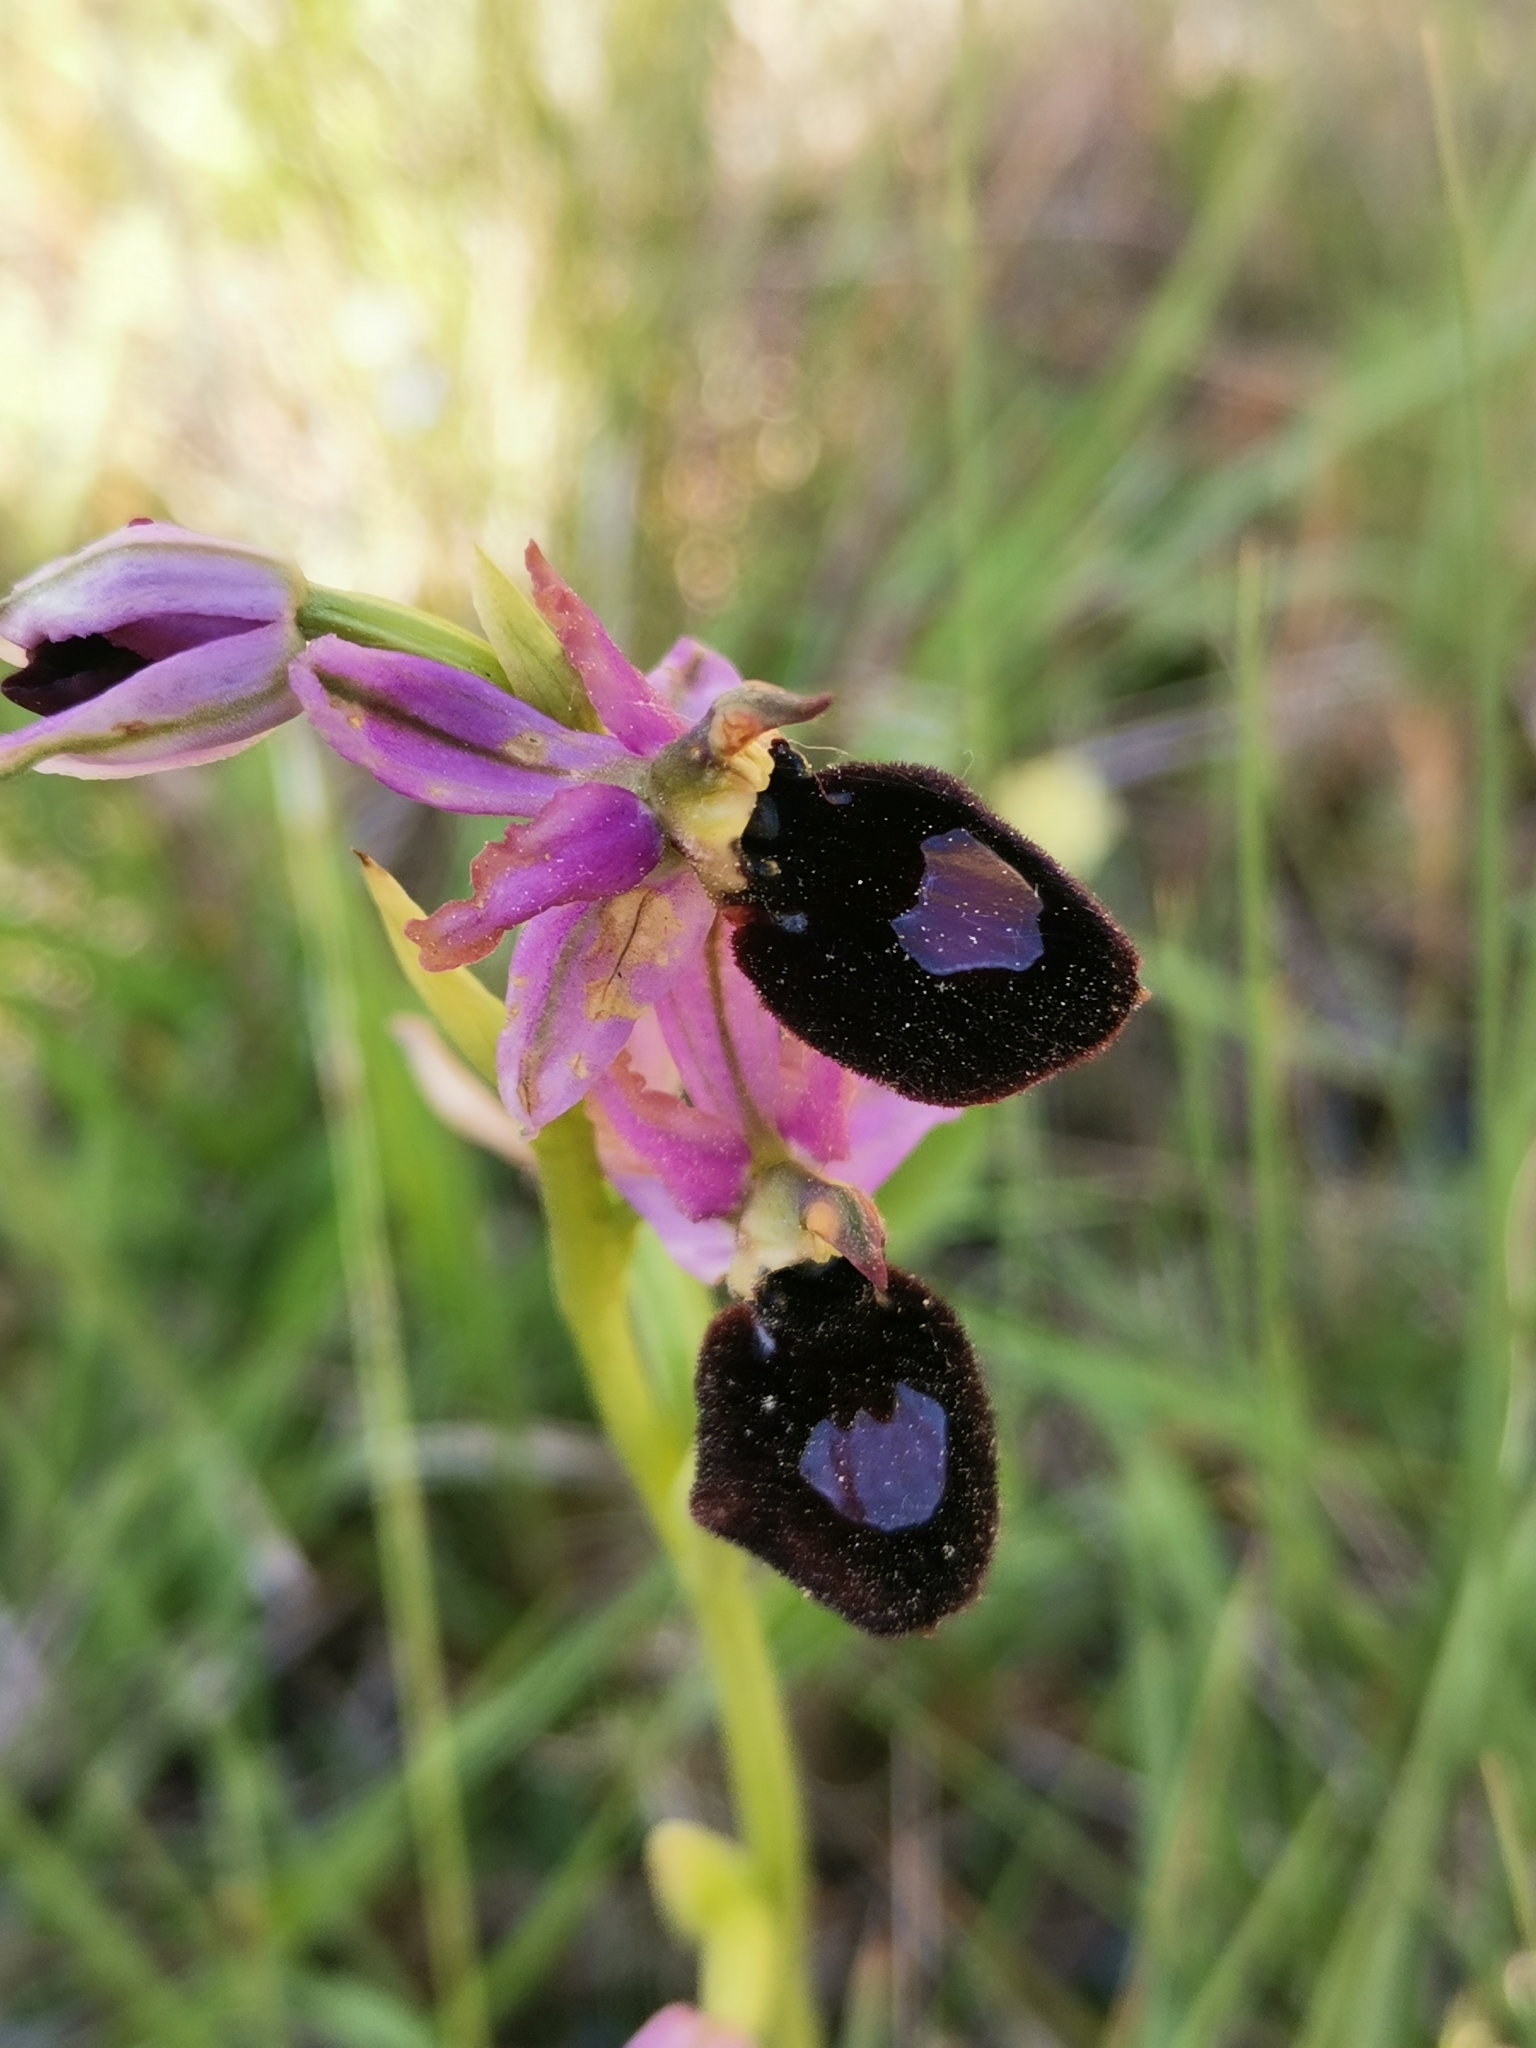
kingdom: Plantae
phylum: Tracheophyta
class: Liliopsida
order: Asparagales
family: Orchidaceae
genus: Ophrys
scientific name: Ophrys flavicans
